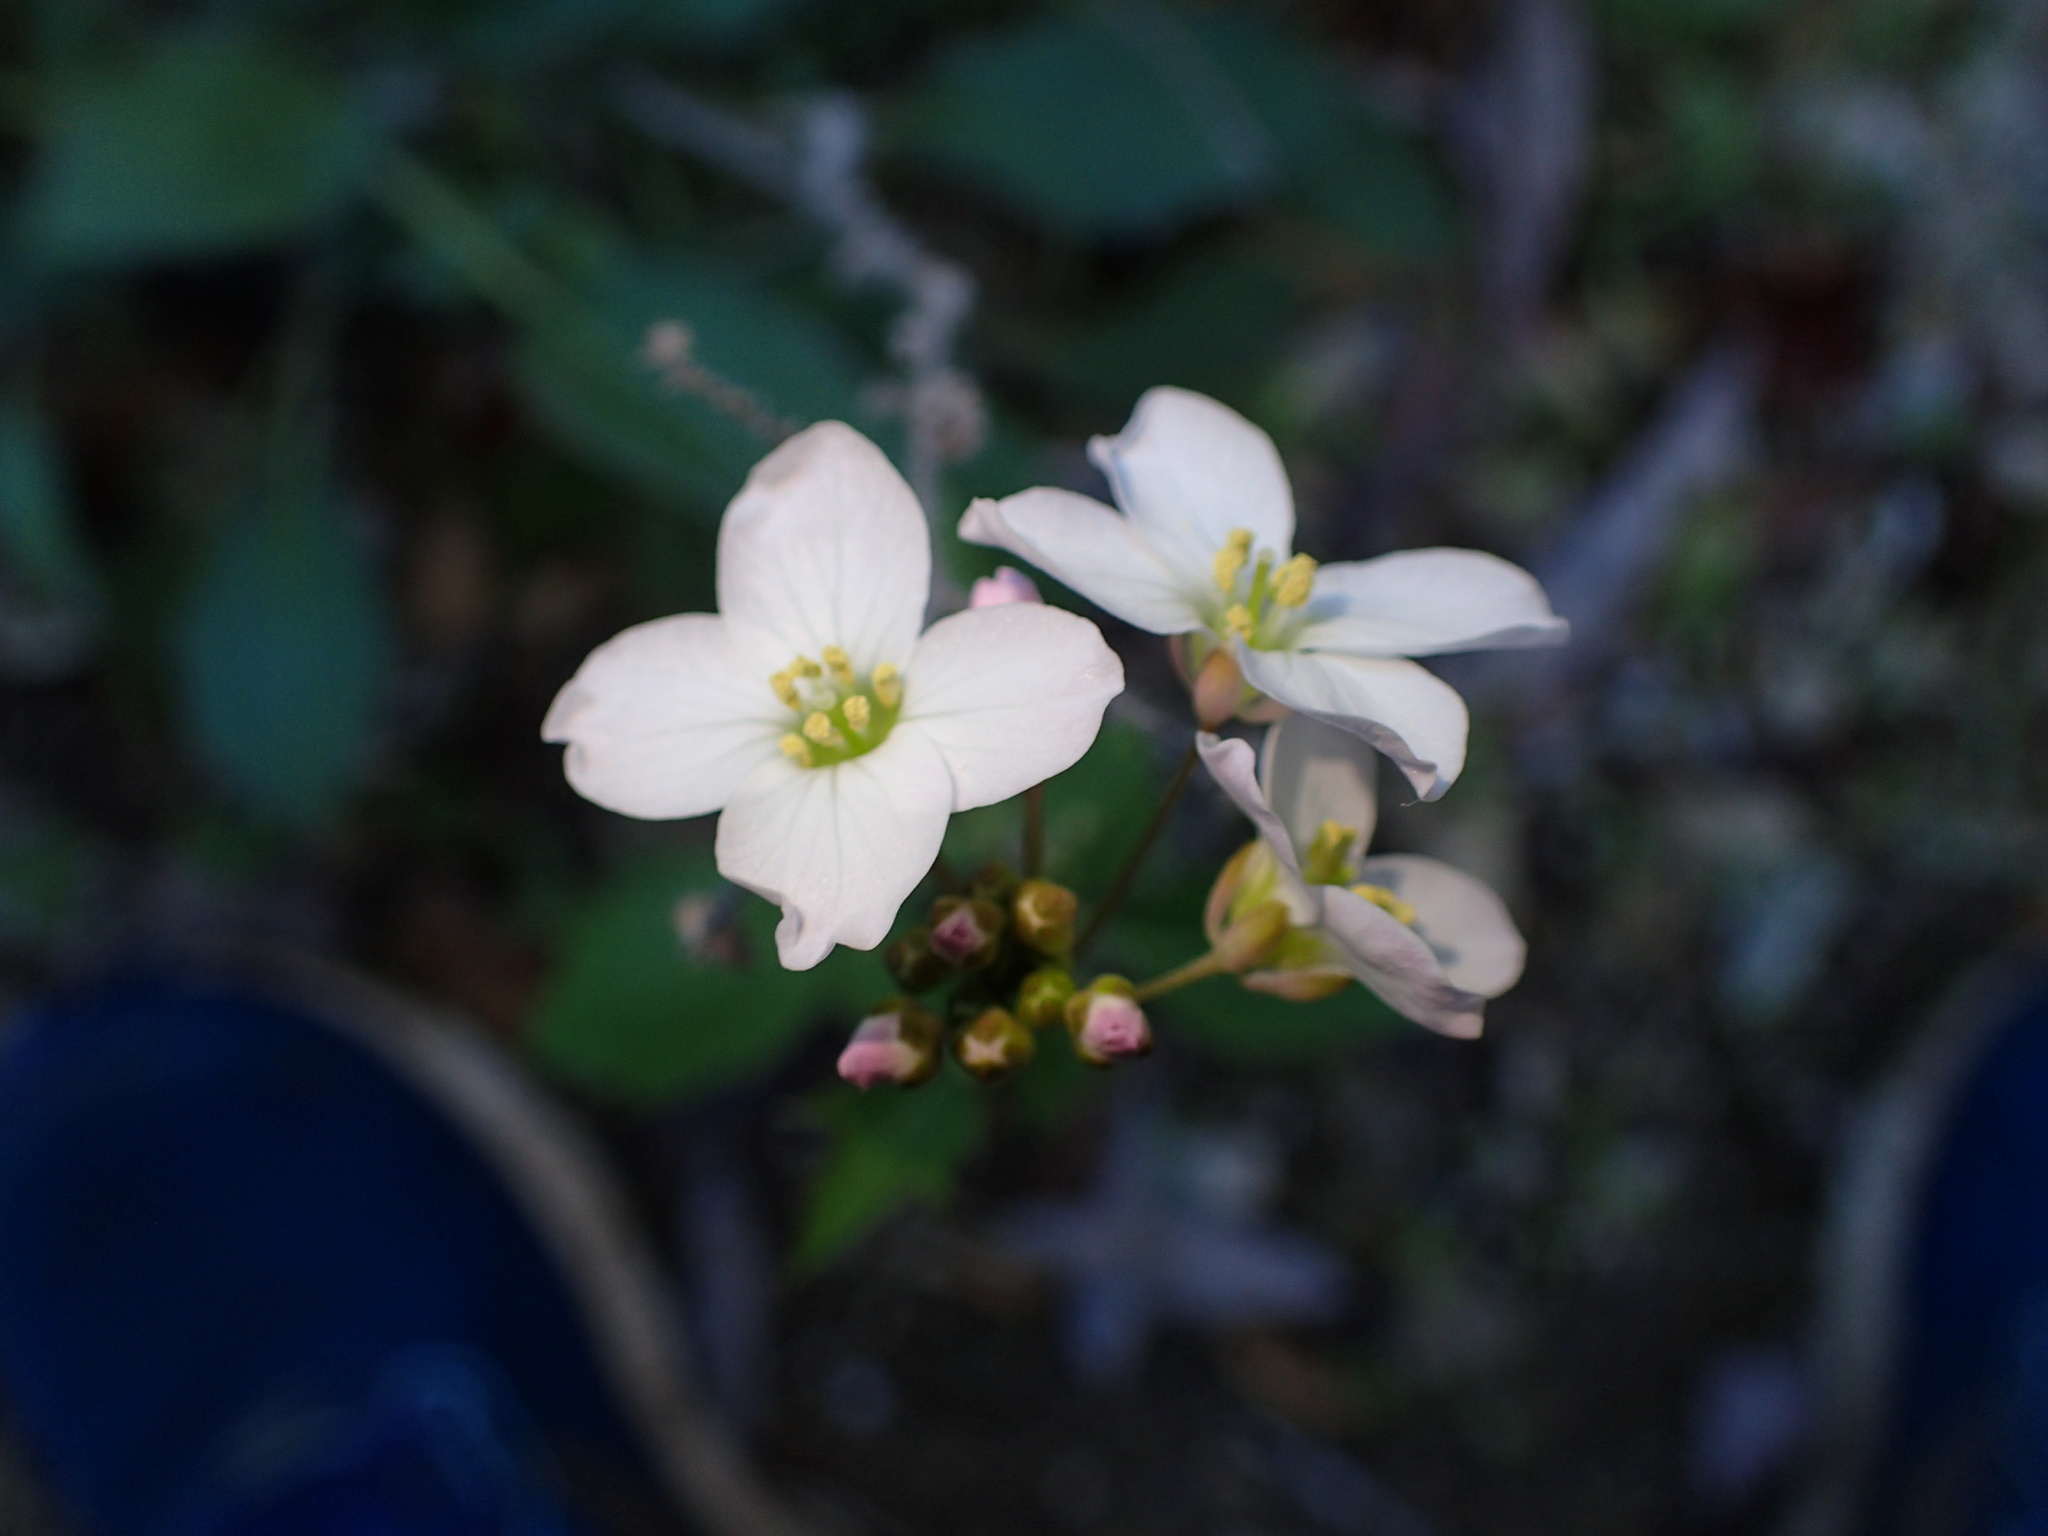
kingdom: Plantae
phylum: Tracheophyta
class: Magnoliopsida
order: Brassicales
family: Brassicaceae
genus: Cardamine
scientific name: Cardamine californica
